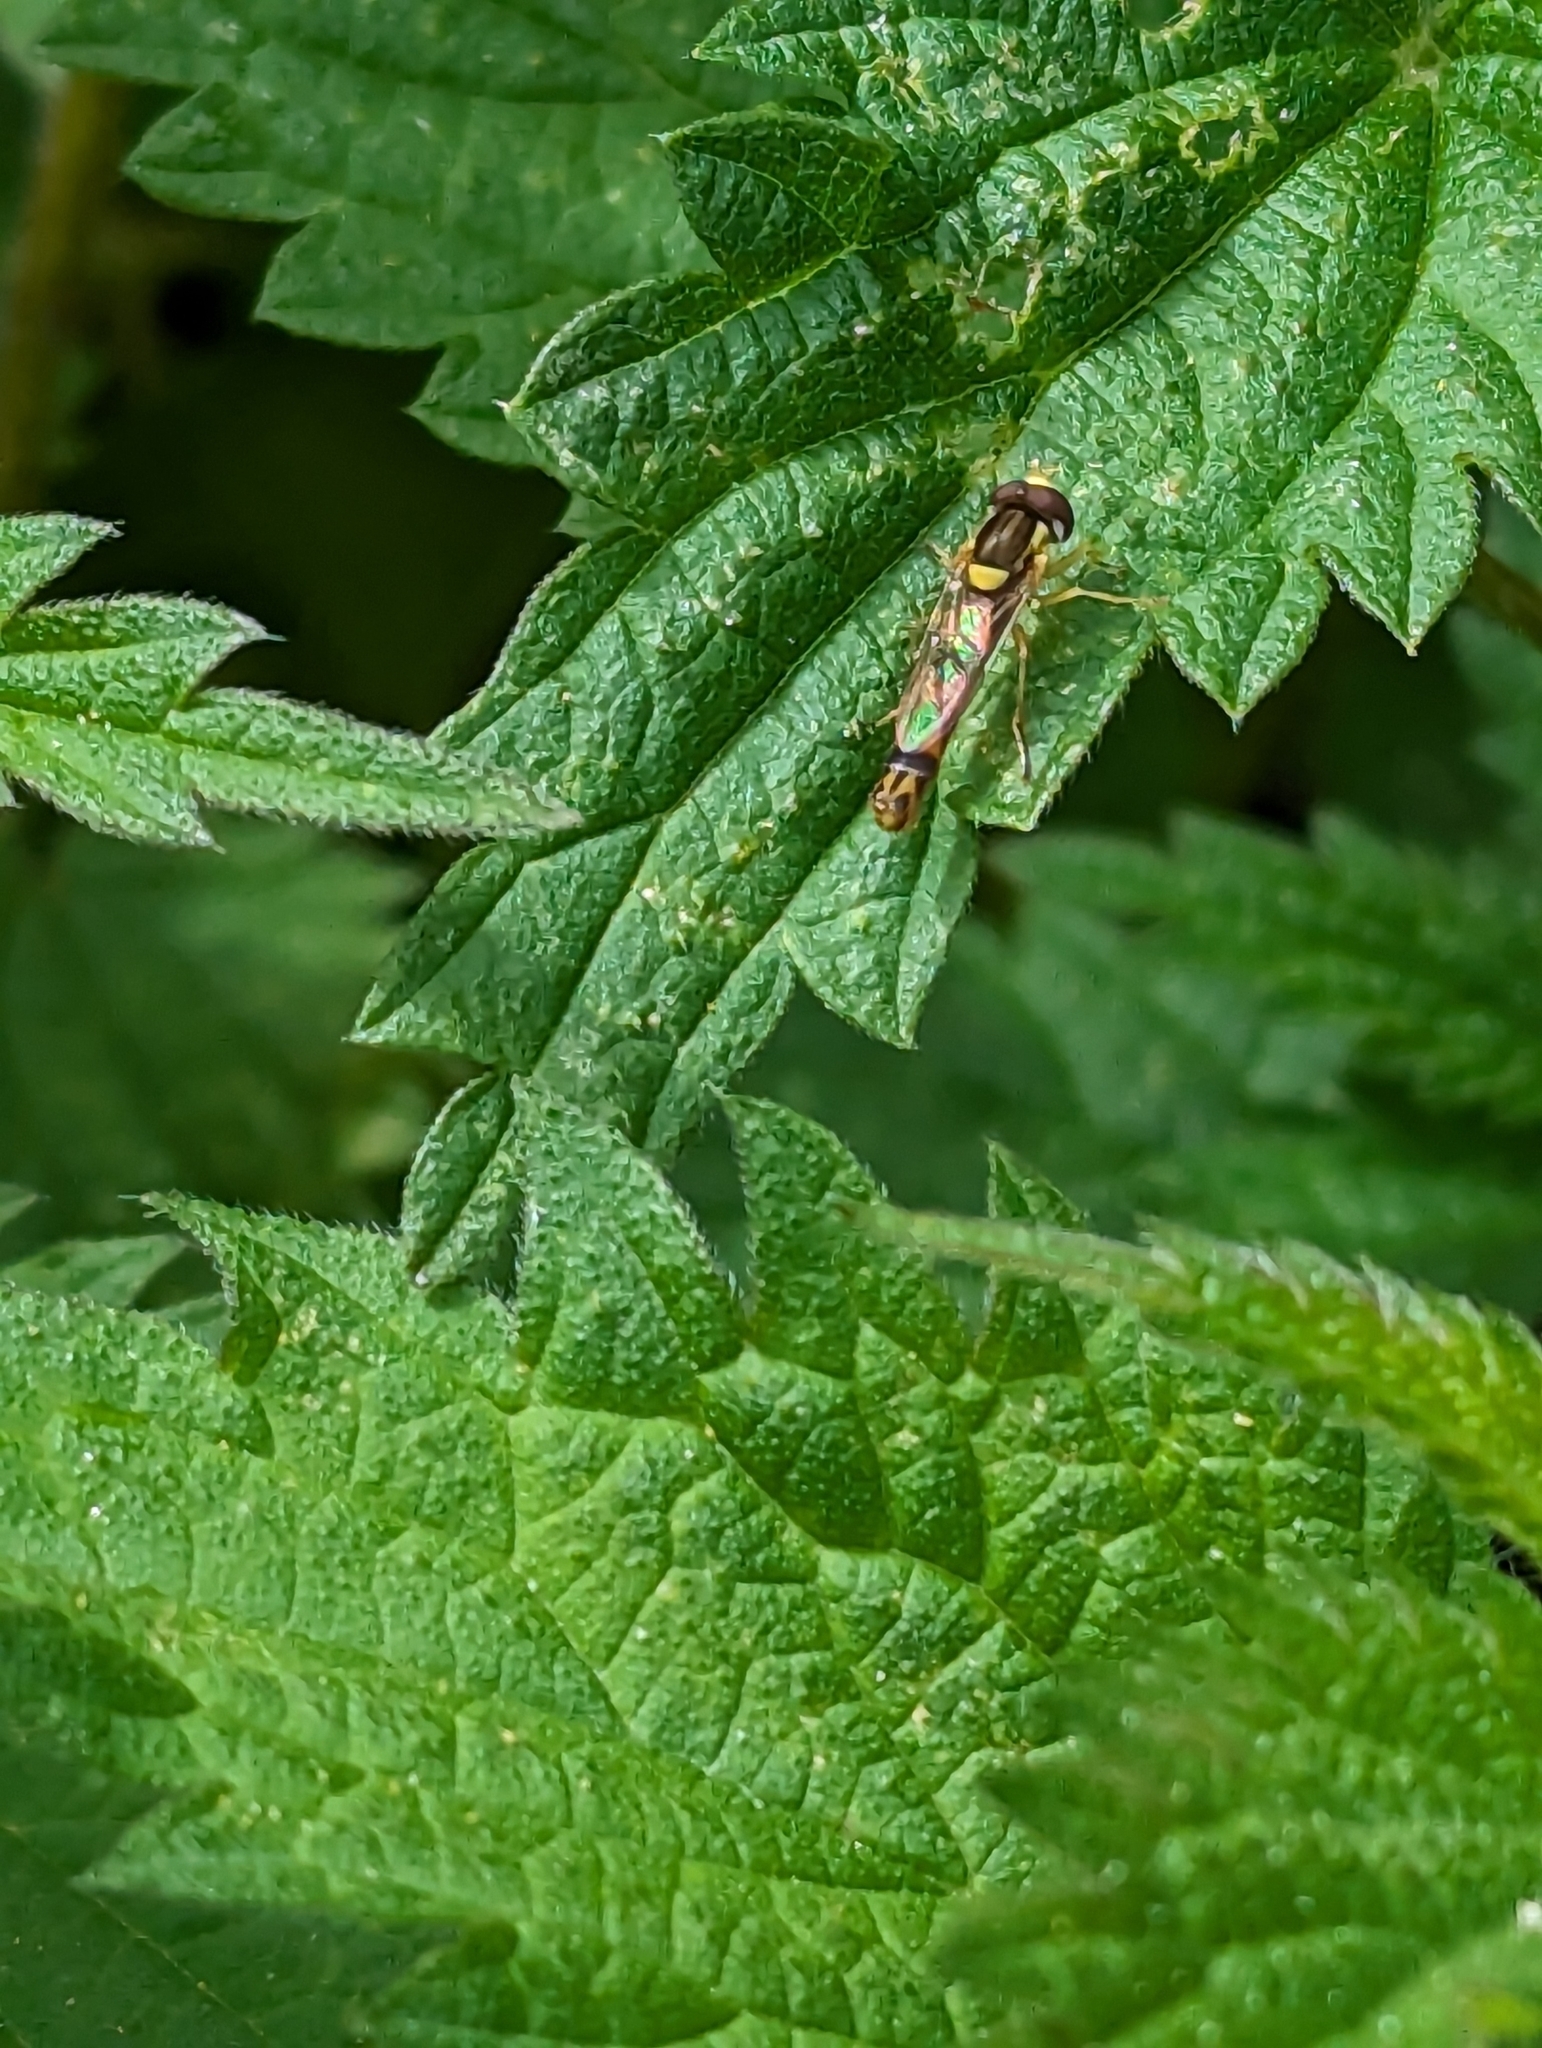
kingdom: Animalia
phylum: Arthropoda
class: Insecta
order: Diptera
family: Syrphidae
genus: Sphaerophoria
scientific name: Sphaerophoria scripta
